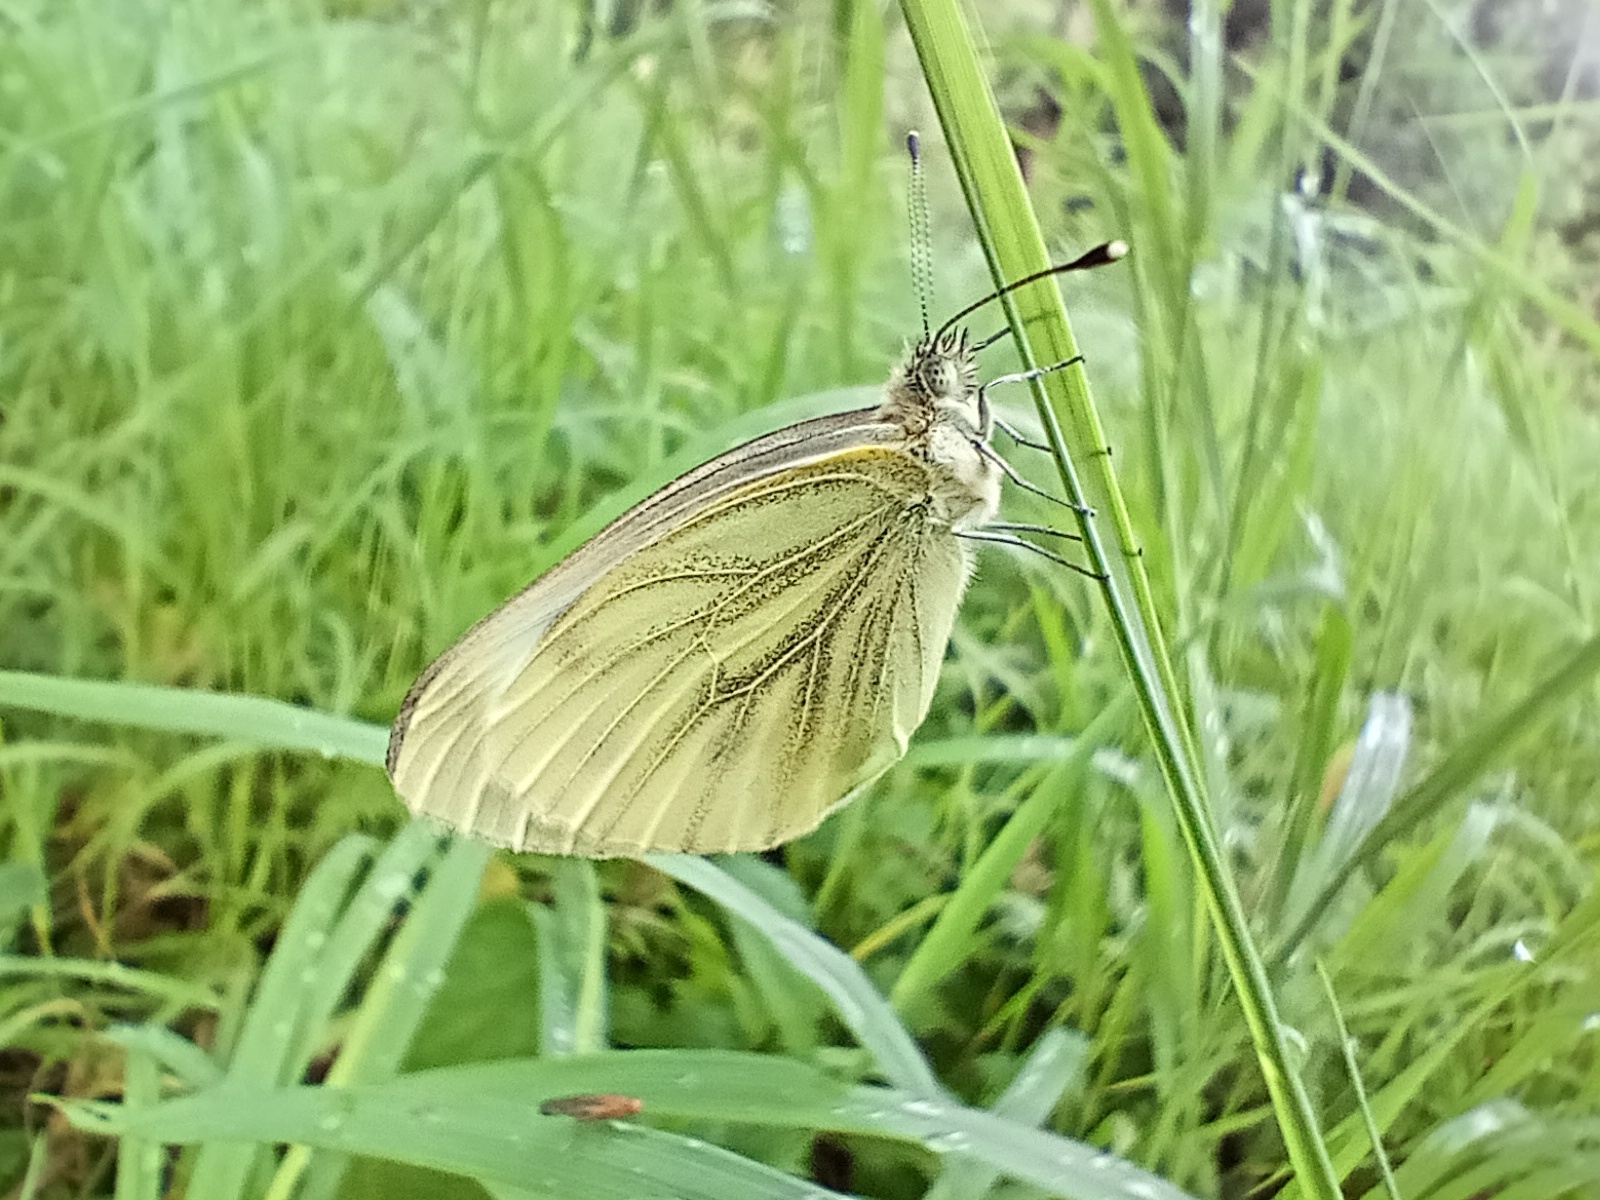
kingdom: Animalia
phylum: Arthropoda
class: Insecta
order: Lepidoptera
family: Pieridae
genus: Pieris
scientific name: Pieris napi
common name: Green-veined white
